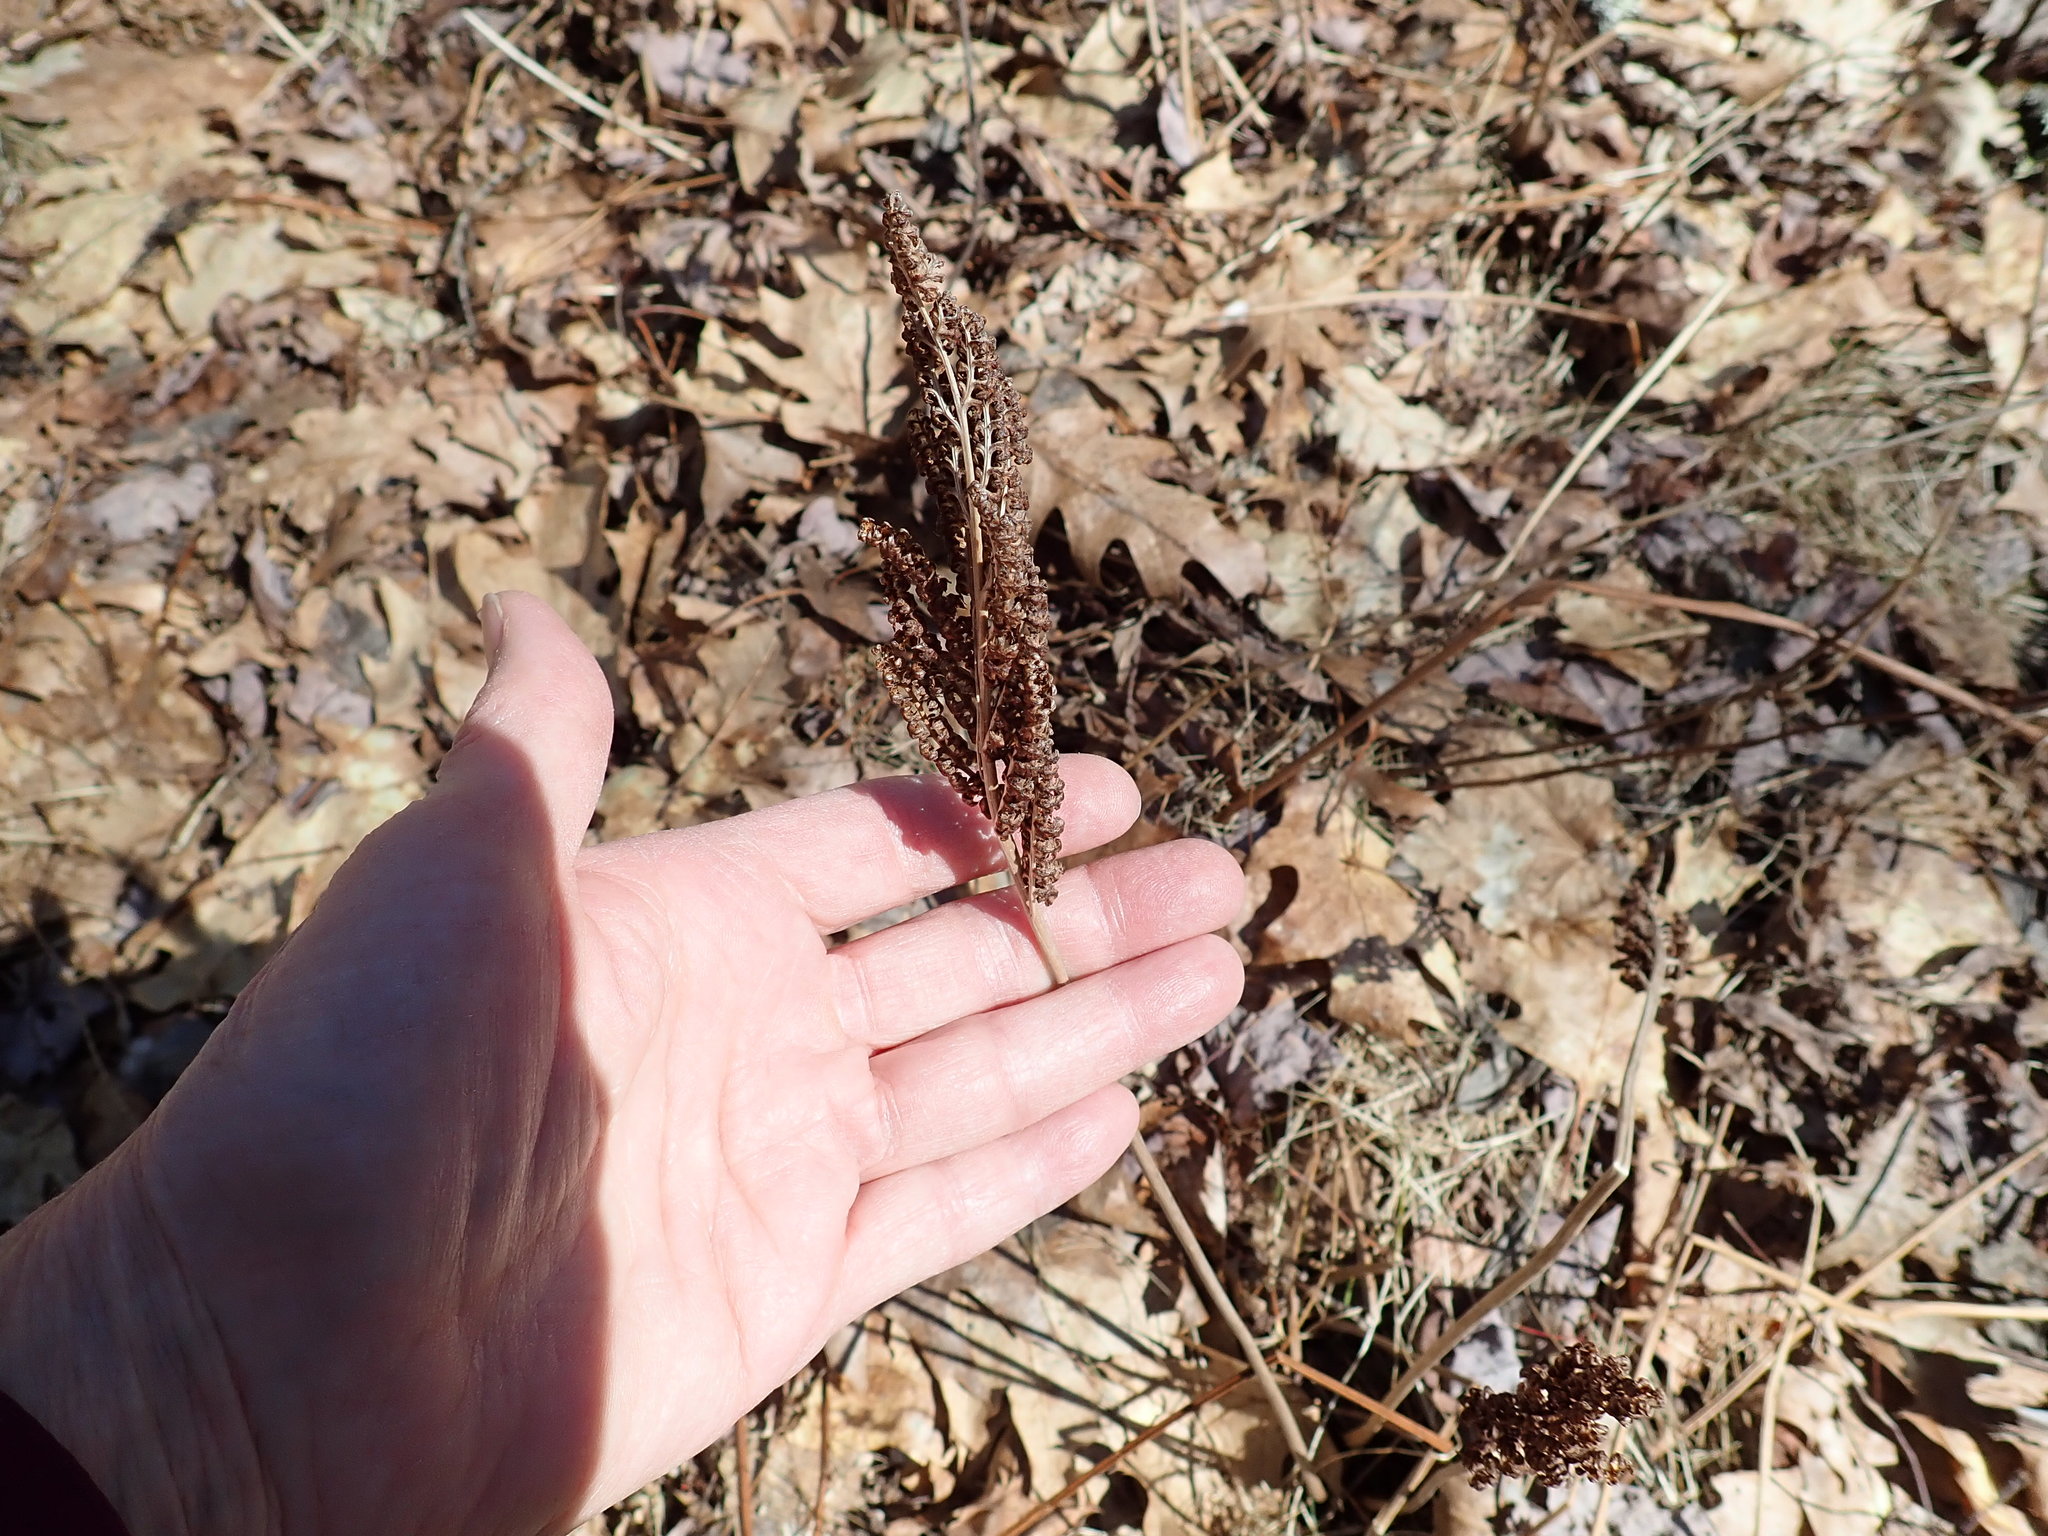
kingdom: Plantae
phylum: Tracheophyta
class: Polypodiopsida
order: Polypodiales
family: Onocleaceae
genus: Onoclea
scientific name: Onoclea sensibilis
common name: Sensitive fern
